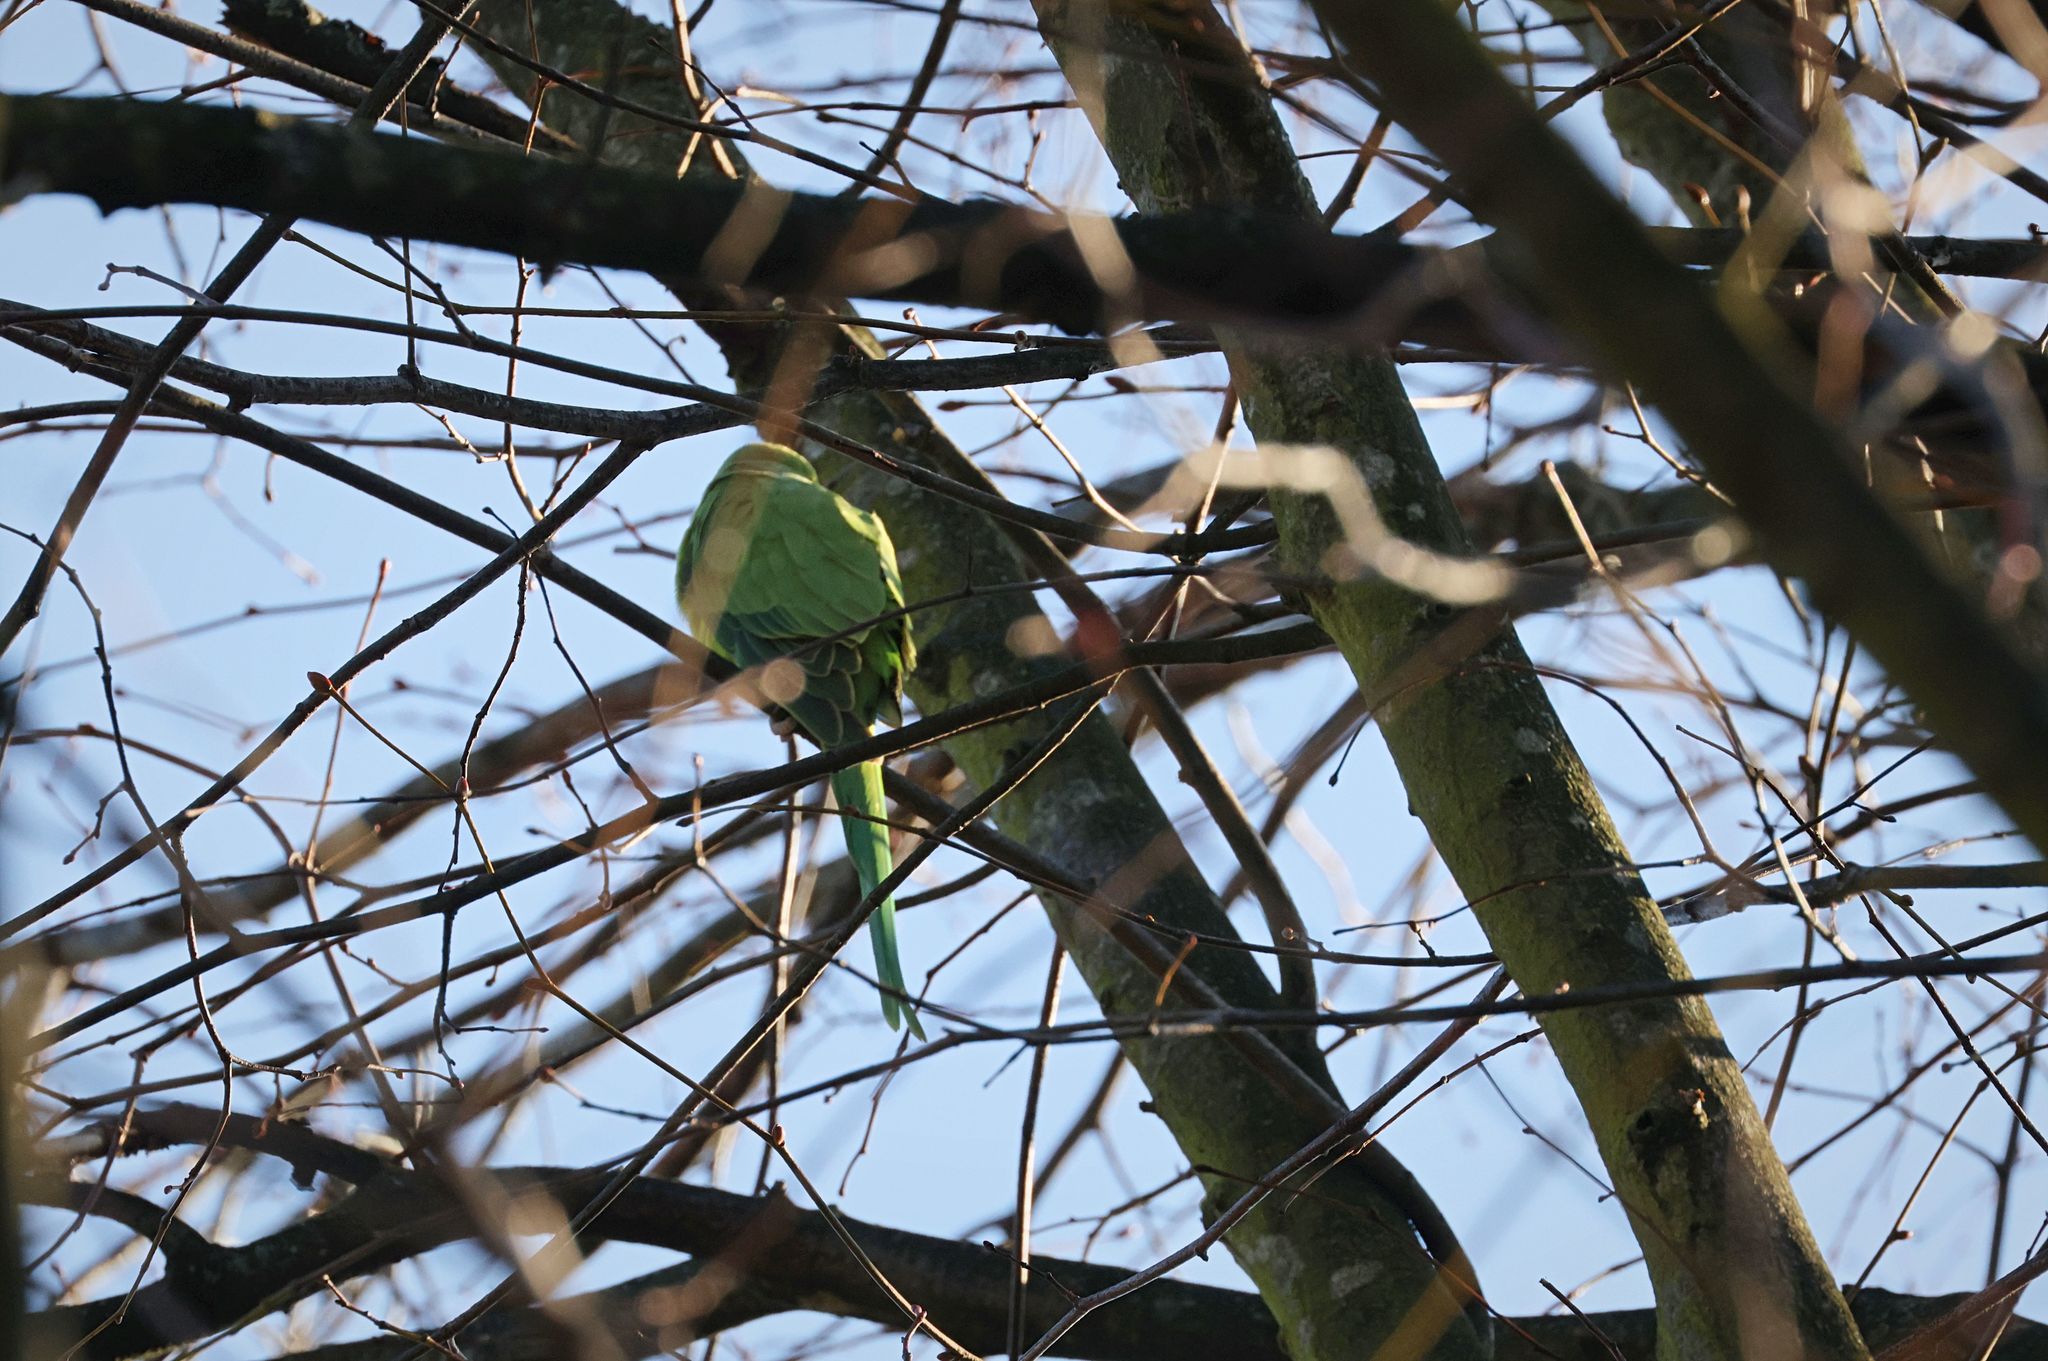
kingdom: Animalia
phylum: Chordata
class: Aves
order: Psittaciformes
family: Psittacidae
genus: Psittacula
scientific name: Psittacula krameri
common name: Rose-ringed parakeet
